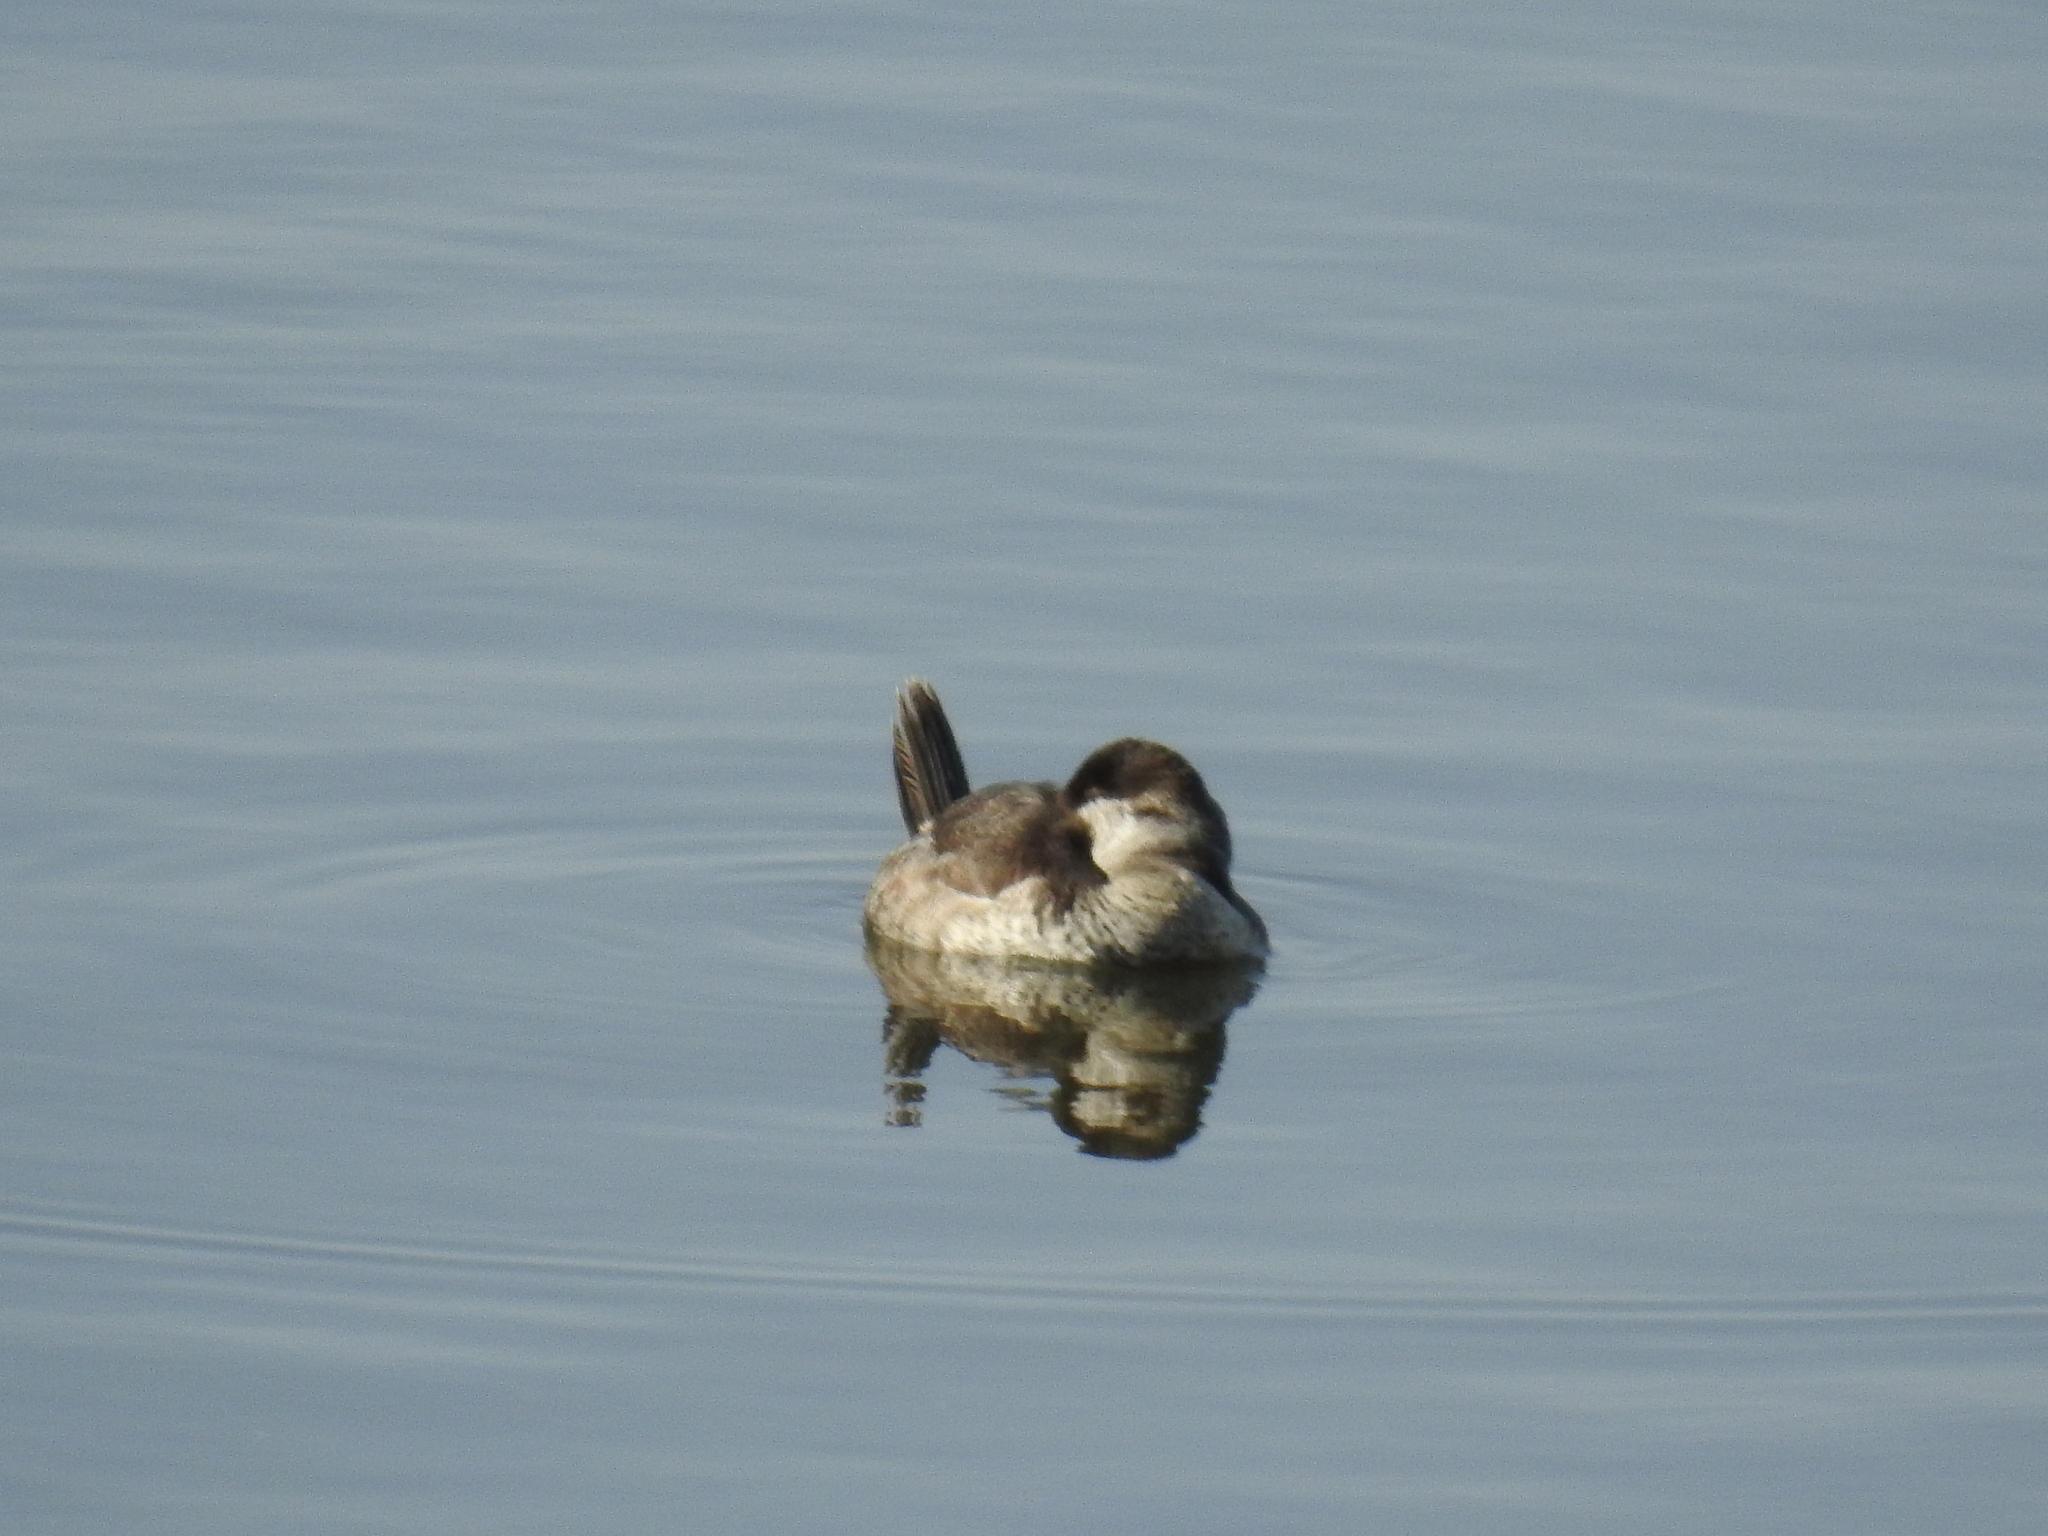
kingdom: Animalia
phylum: Chordata
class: Aves
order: Anseriformes
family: Anatidae
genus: Oxyura
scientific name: Oxyura jamaicensis
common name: Ruddy duck
